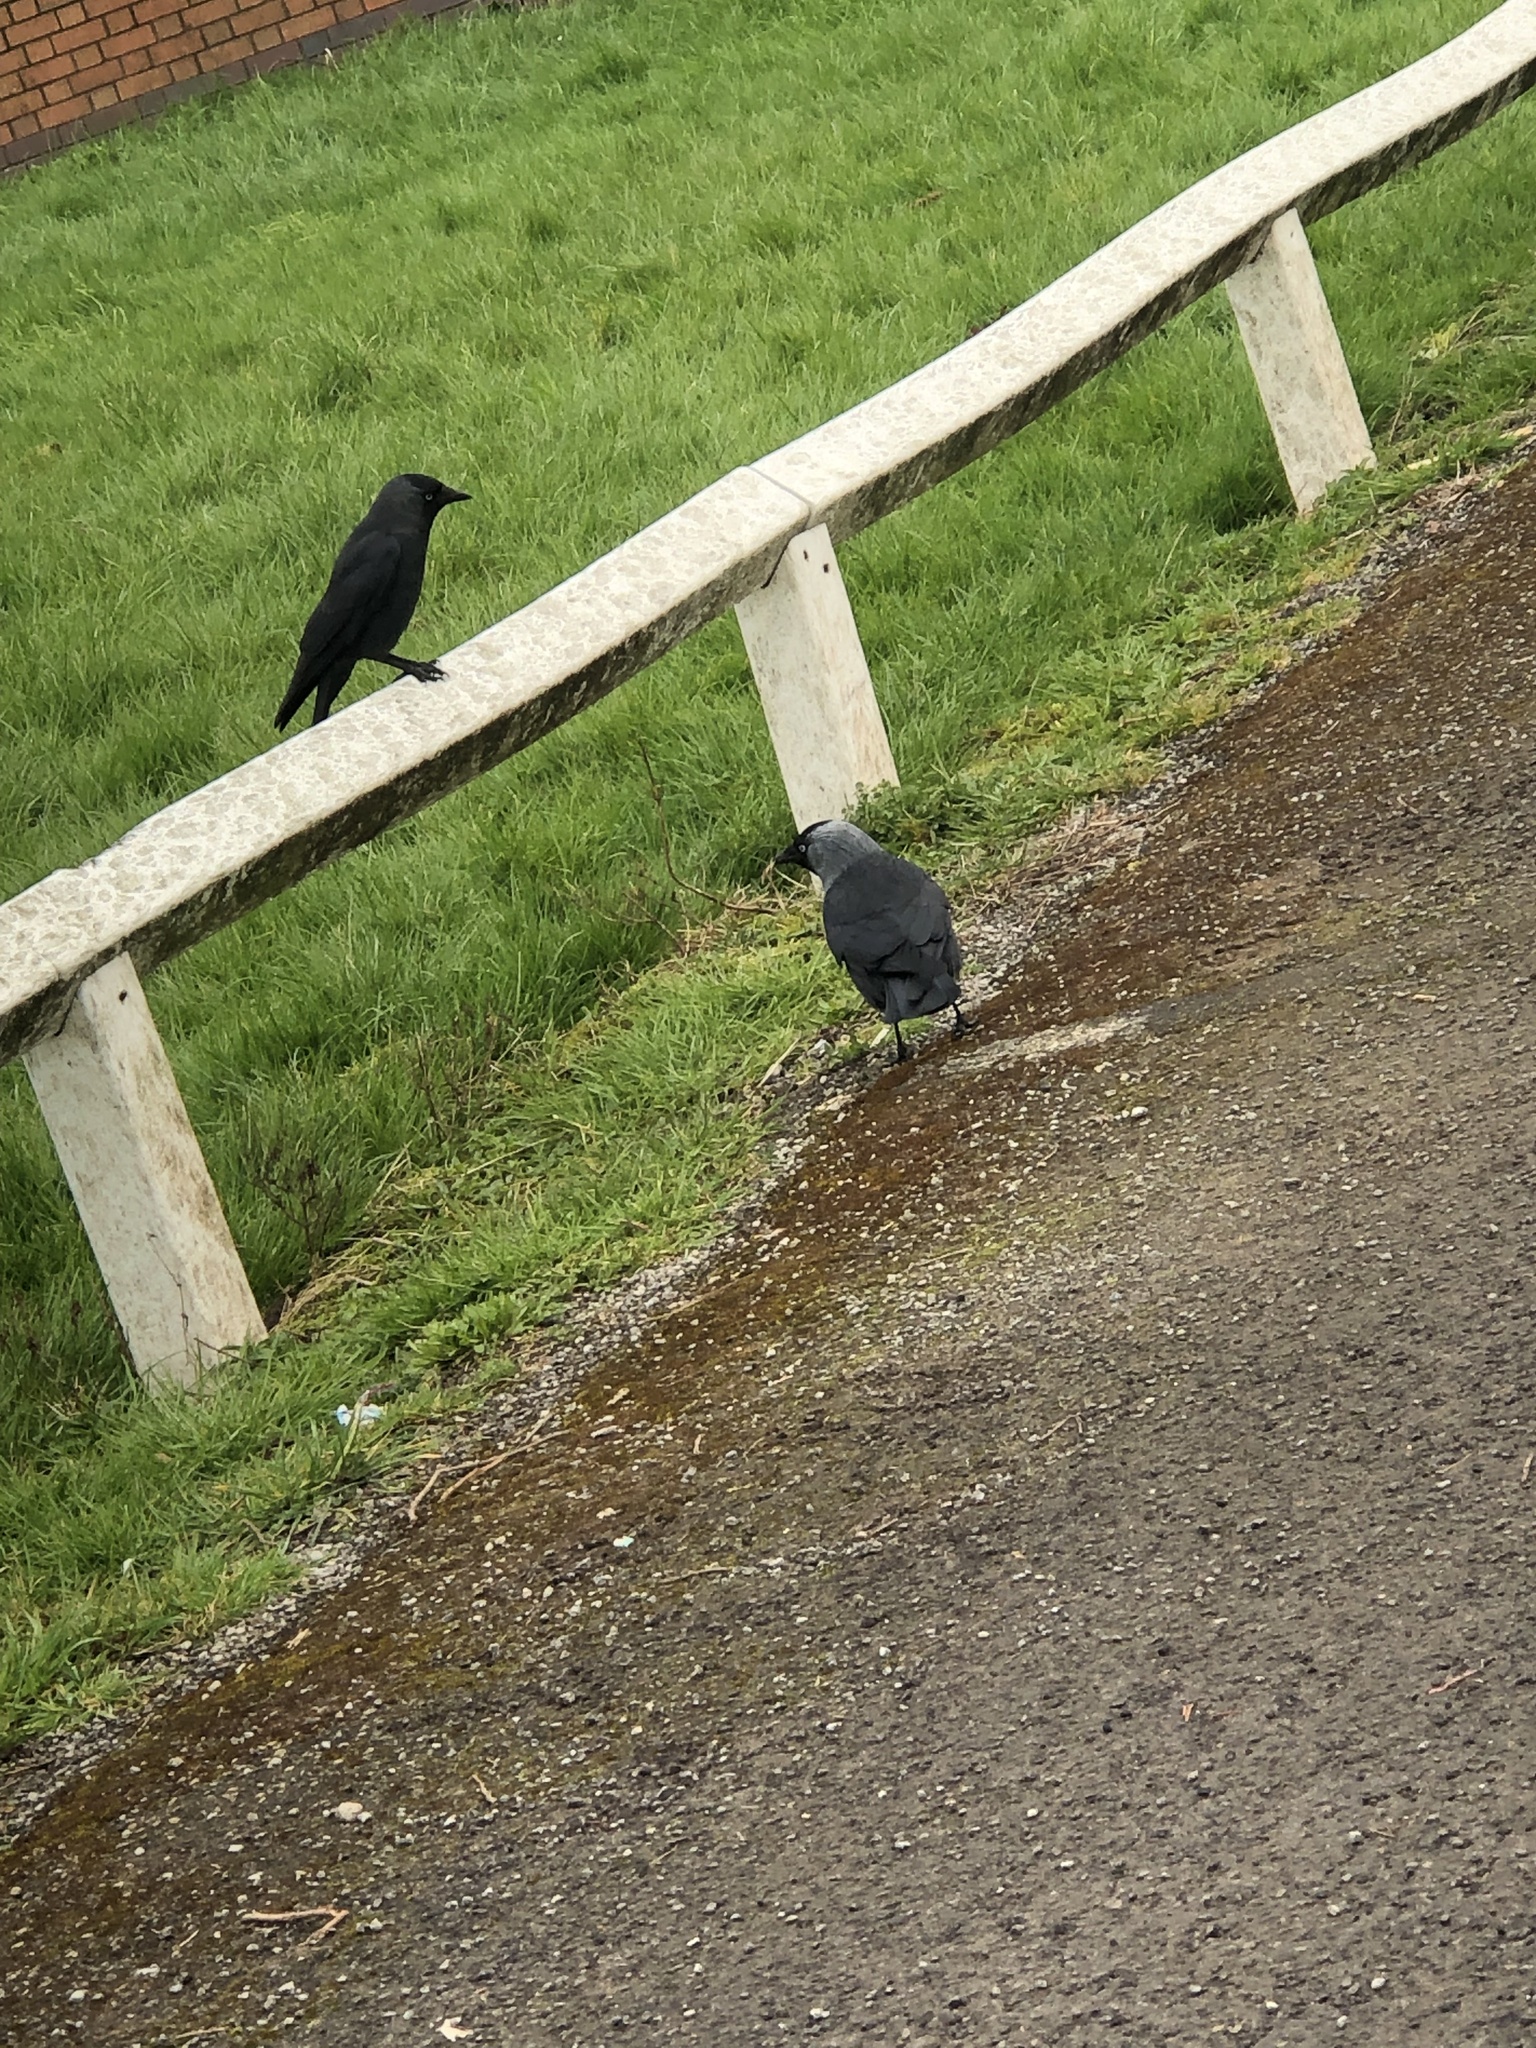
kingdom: Animalia
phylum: Chordata
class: Aves
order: Passeriformes
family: Corvidae
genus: Coloeus
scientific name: Coloeus monedula
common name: Western jackdaw
